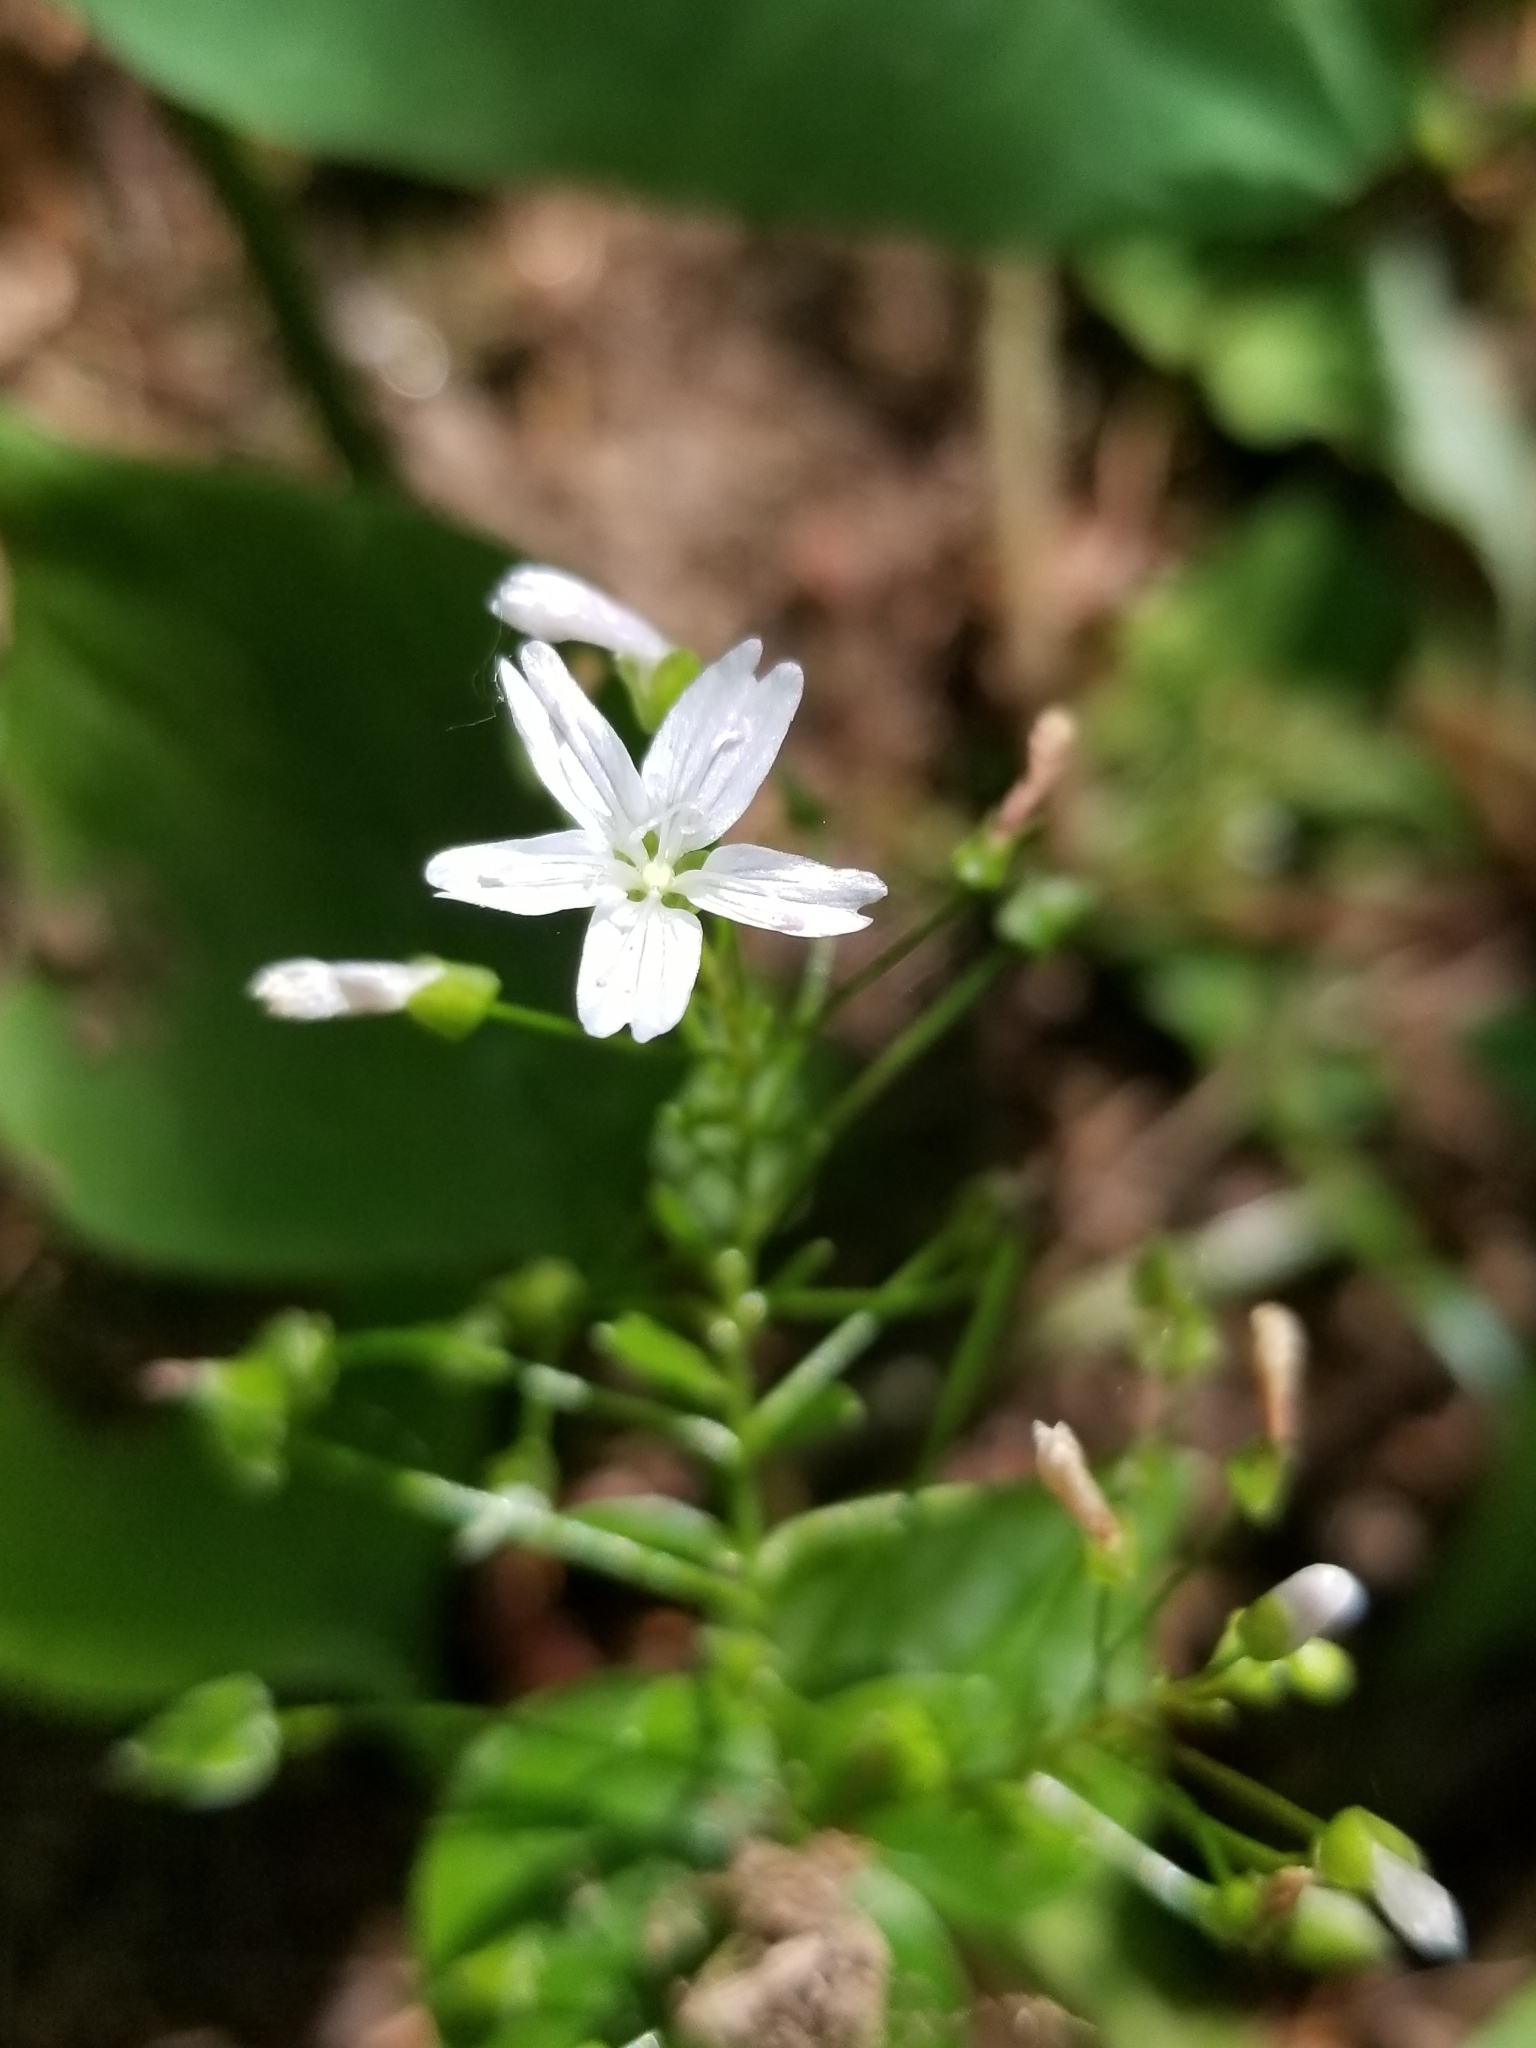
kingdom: Plantae
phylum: Tracheophyta
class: Magnoliopsida
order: Caryophyllales
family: Montiaceae
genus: Claytonia
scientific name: Claytonia sibirica
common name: Pink purslane
